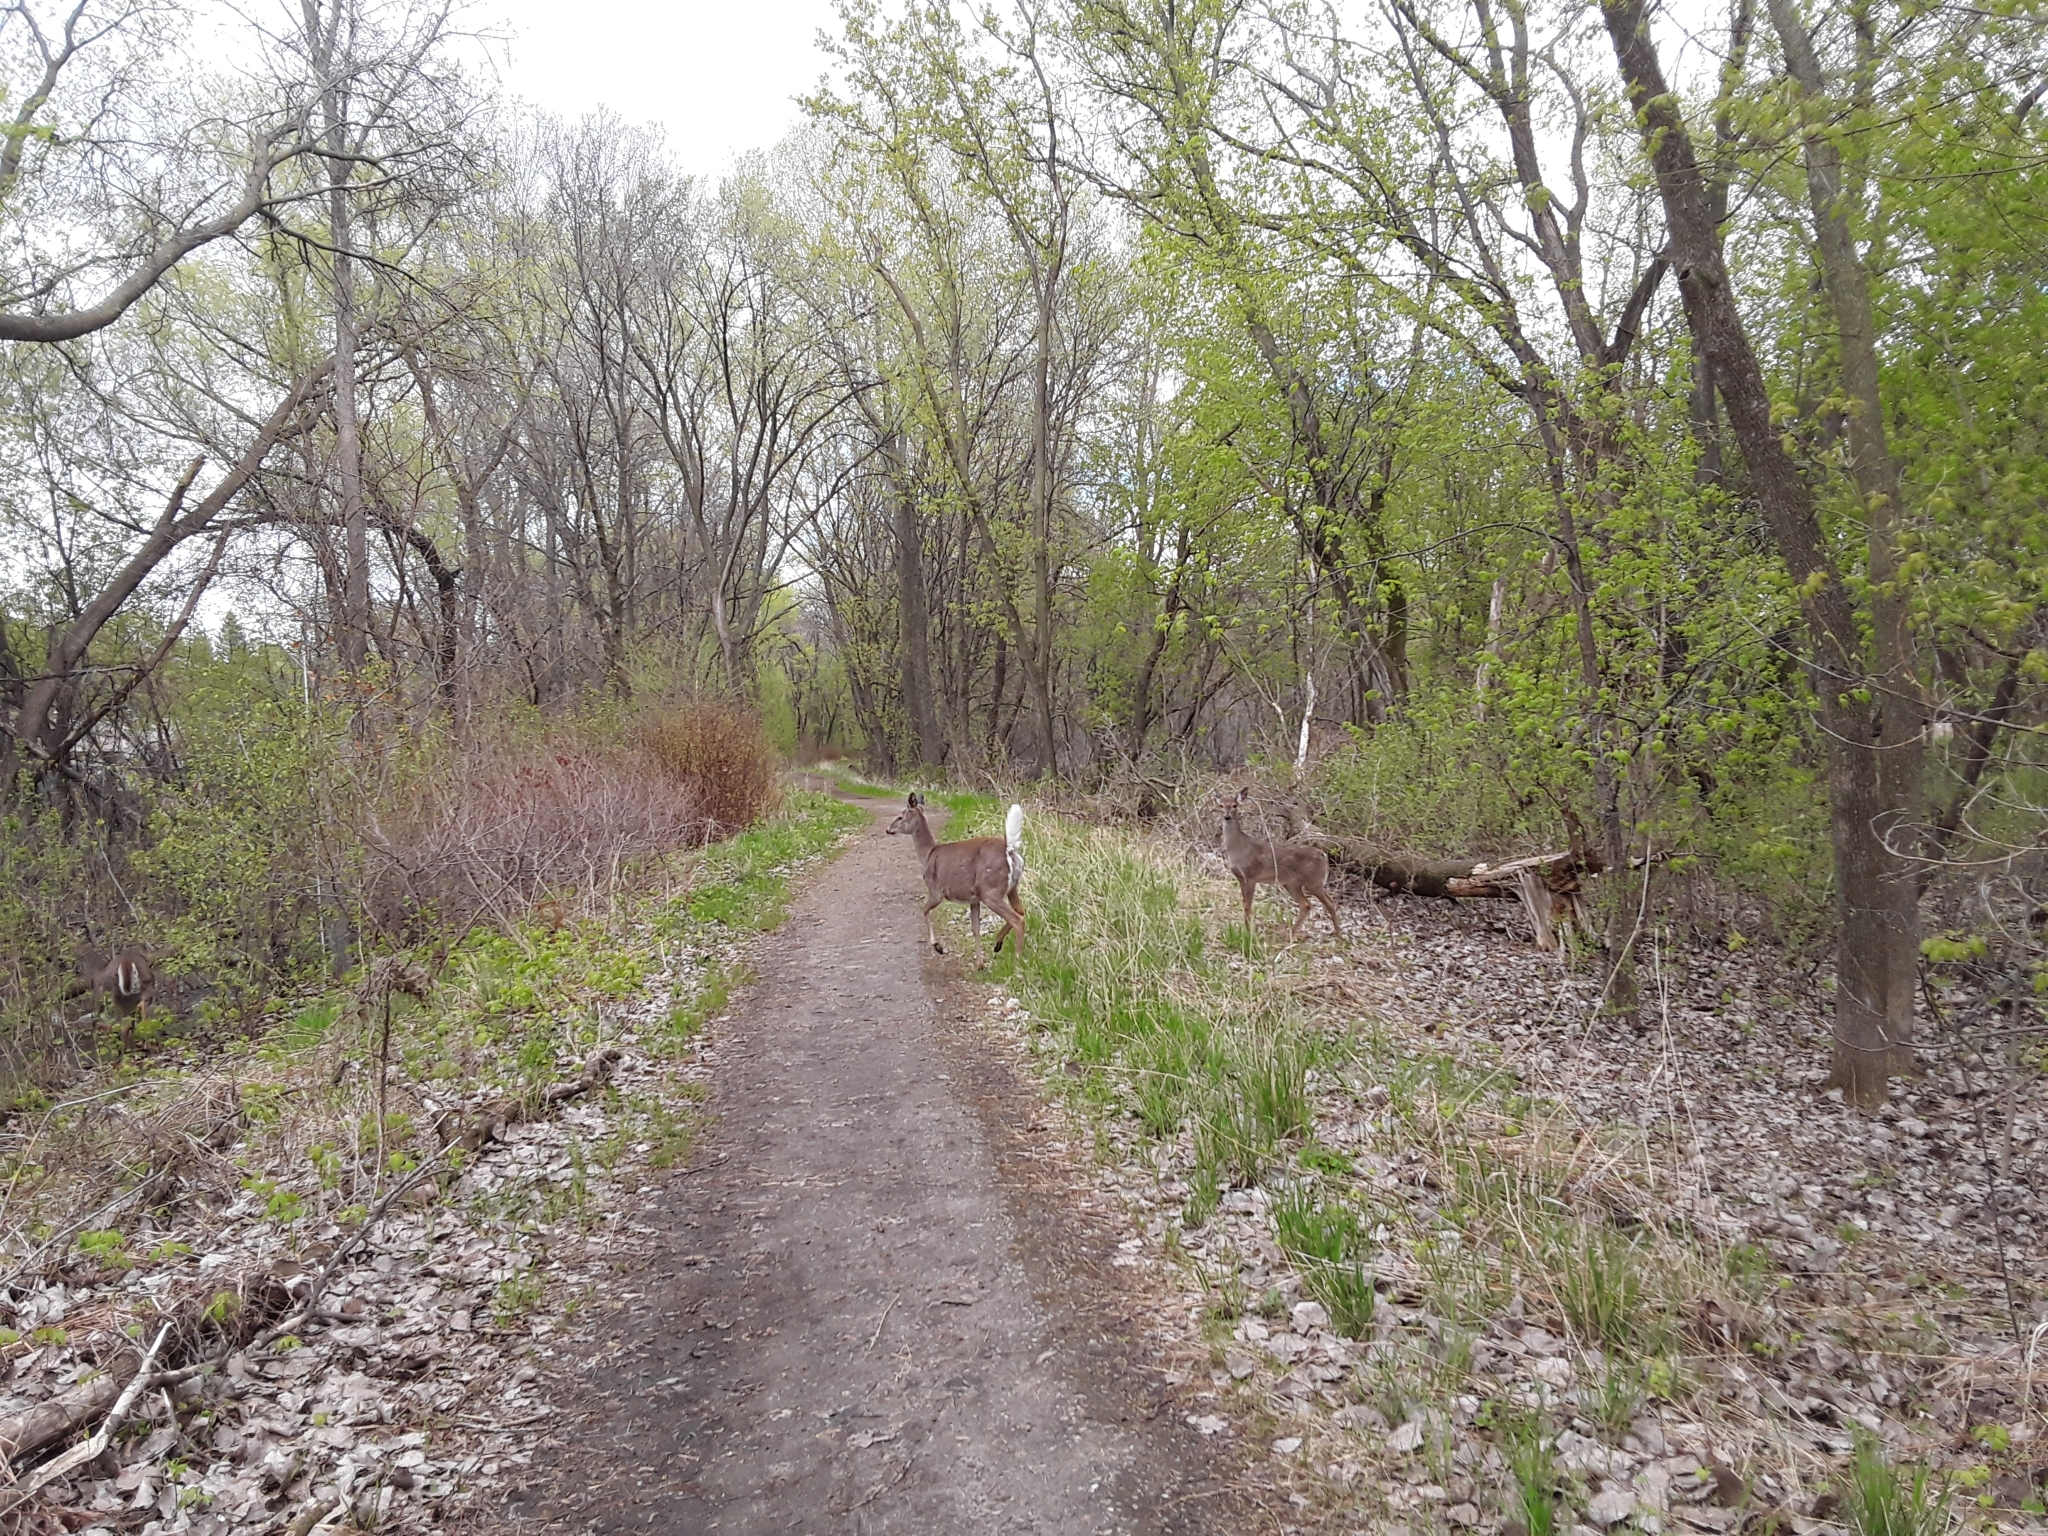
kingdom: Animalia
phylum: Chordata
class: Mammalia
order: Artiodactyla
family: Cervidae
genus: Odocoileus
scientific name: Odocoileus virginianus
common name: White-tailed deer
